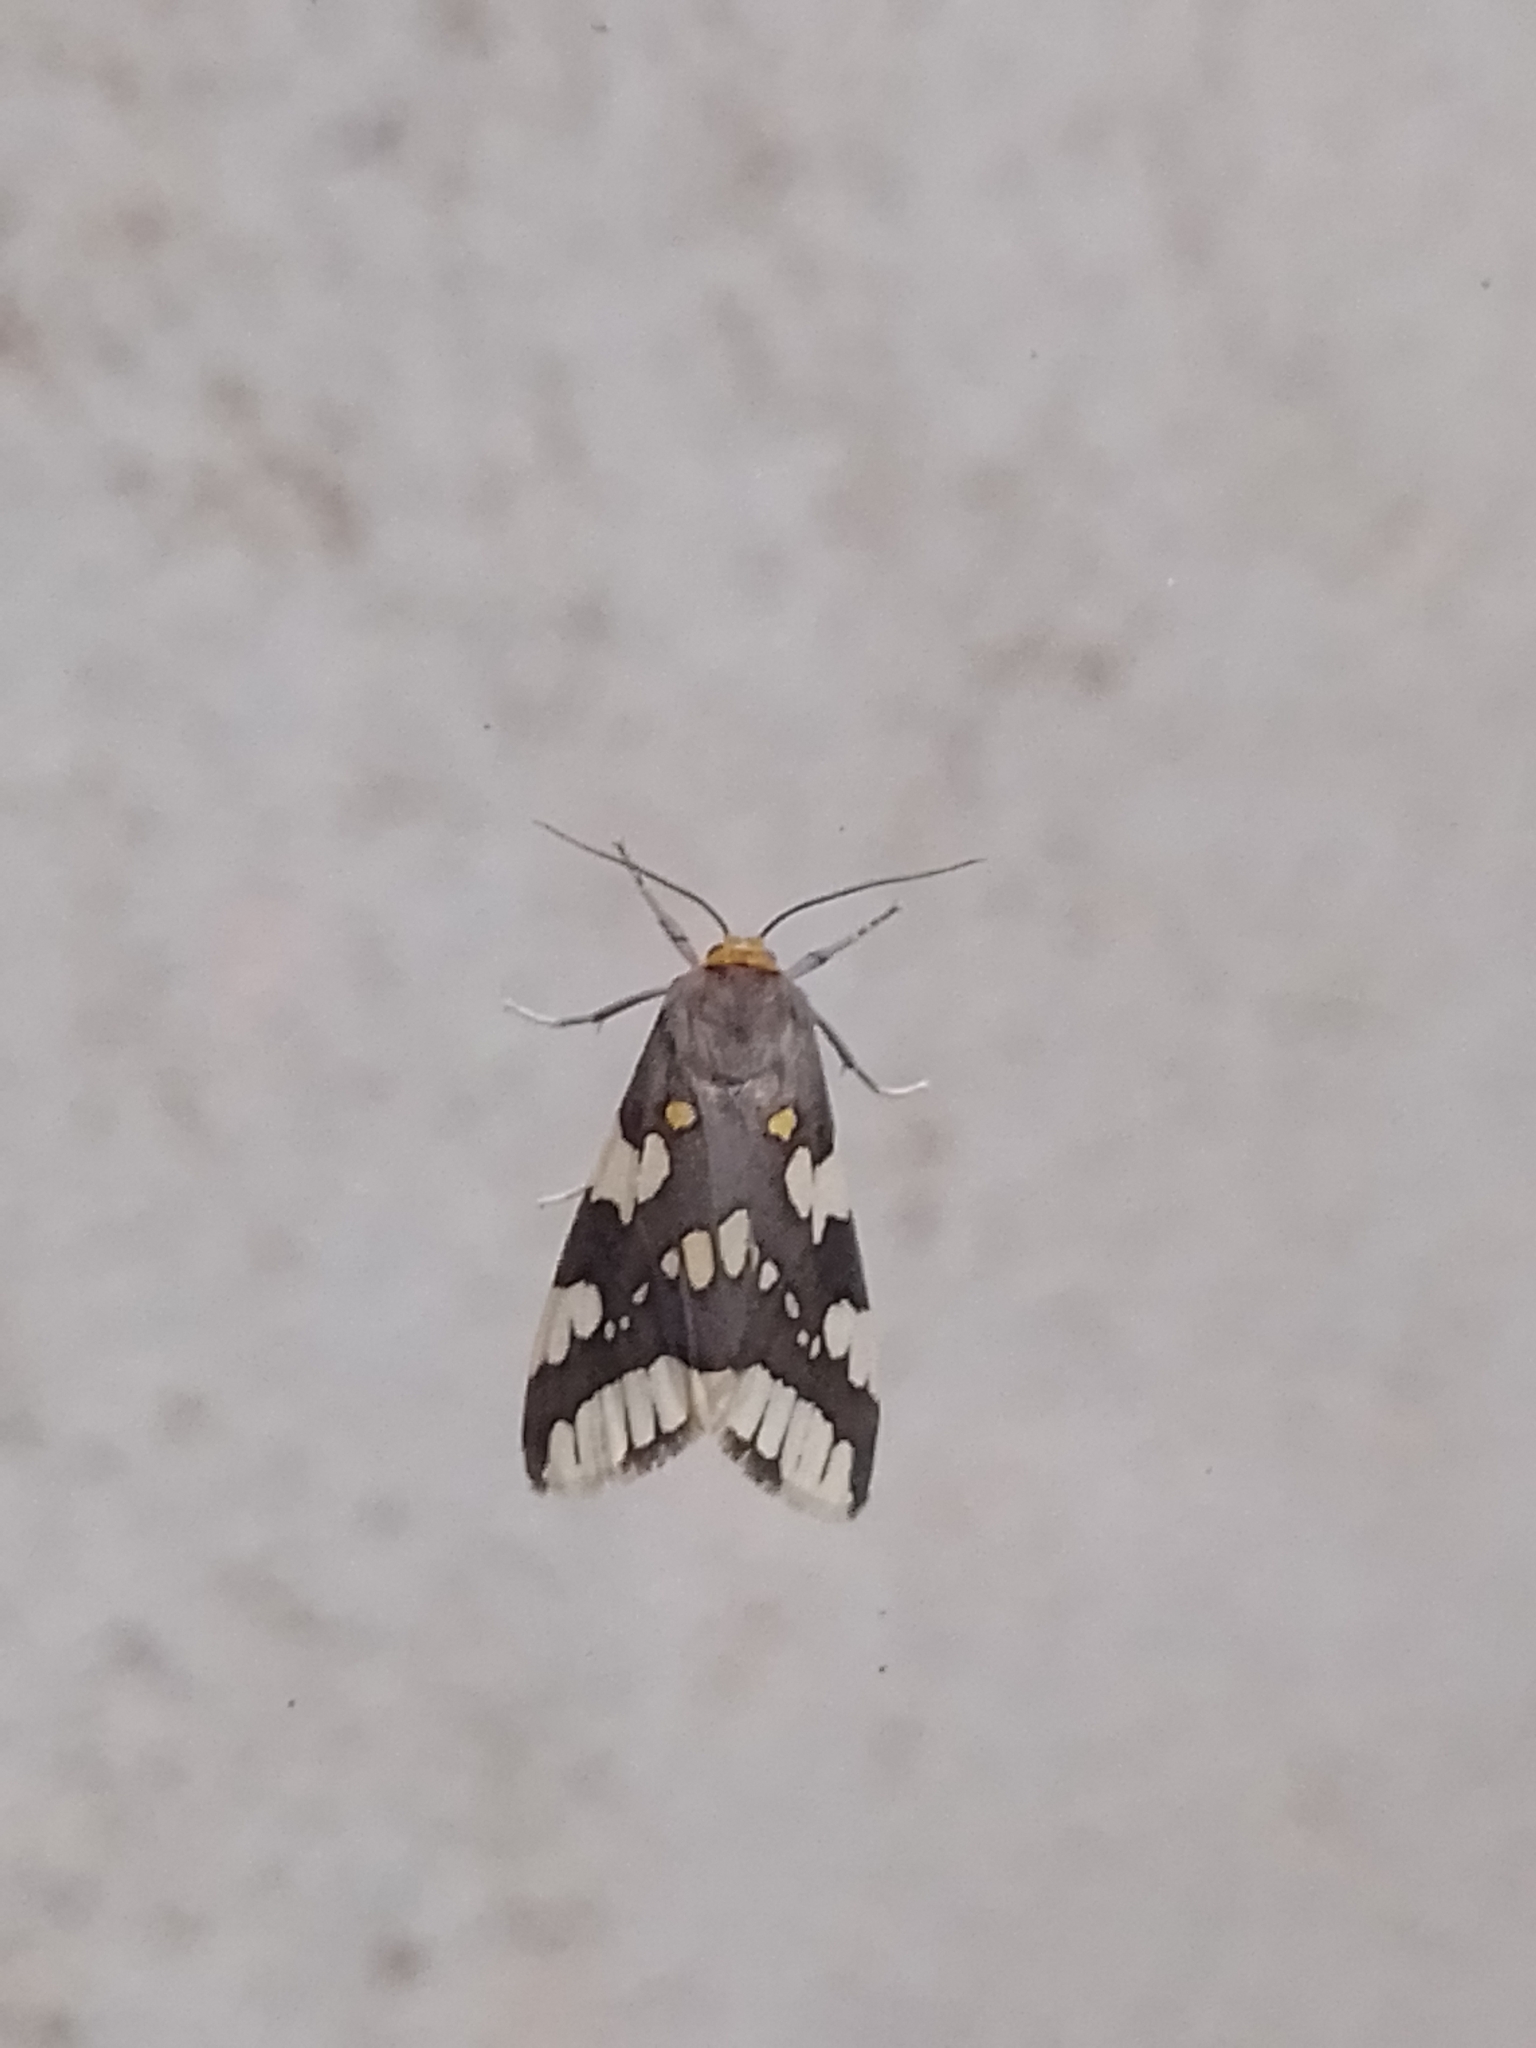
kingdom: Animalia
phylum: Arthropoda
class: Insecta
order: Lepidoptera
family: Erebidae
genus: Tessellota
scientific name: Tessellota trifasciata
